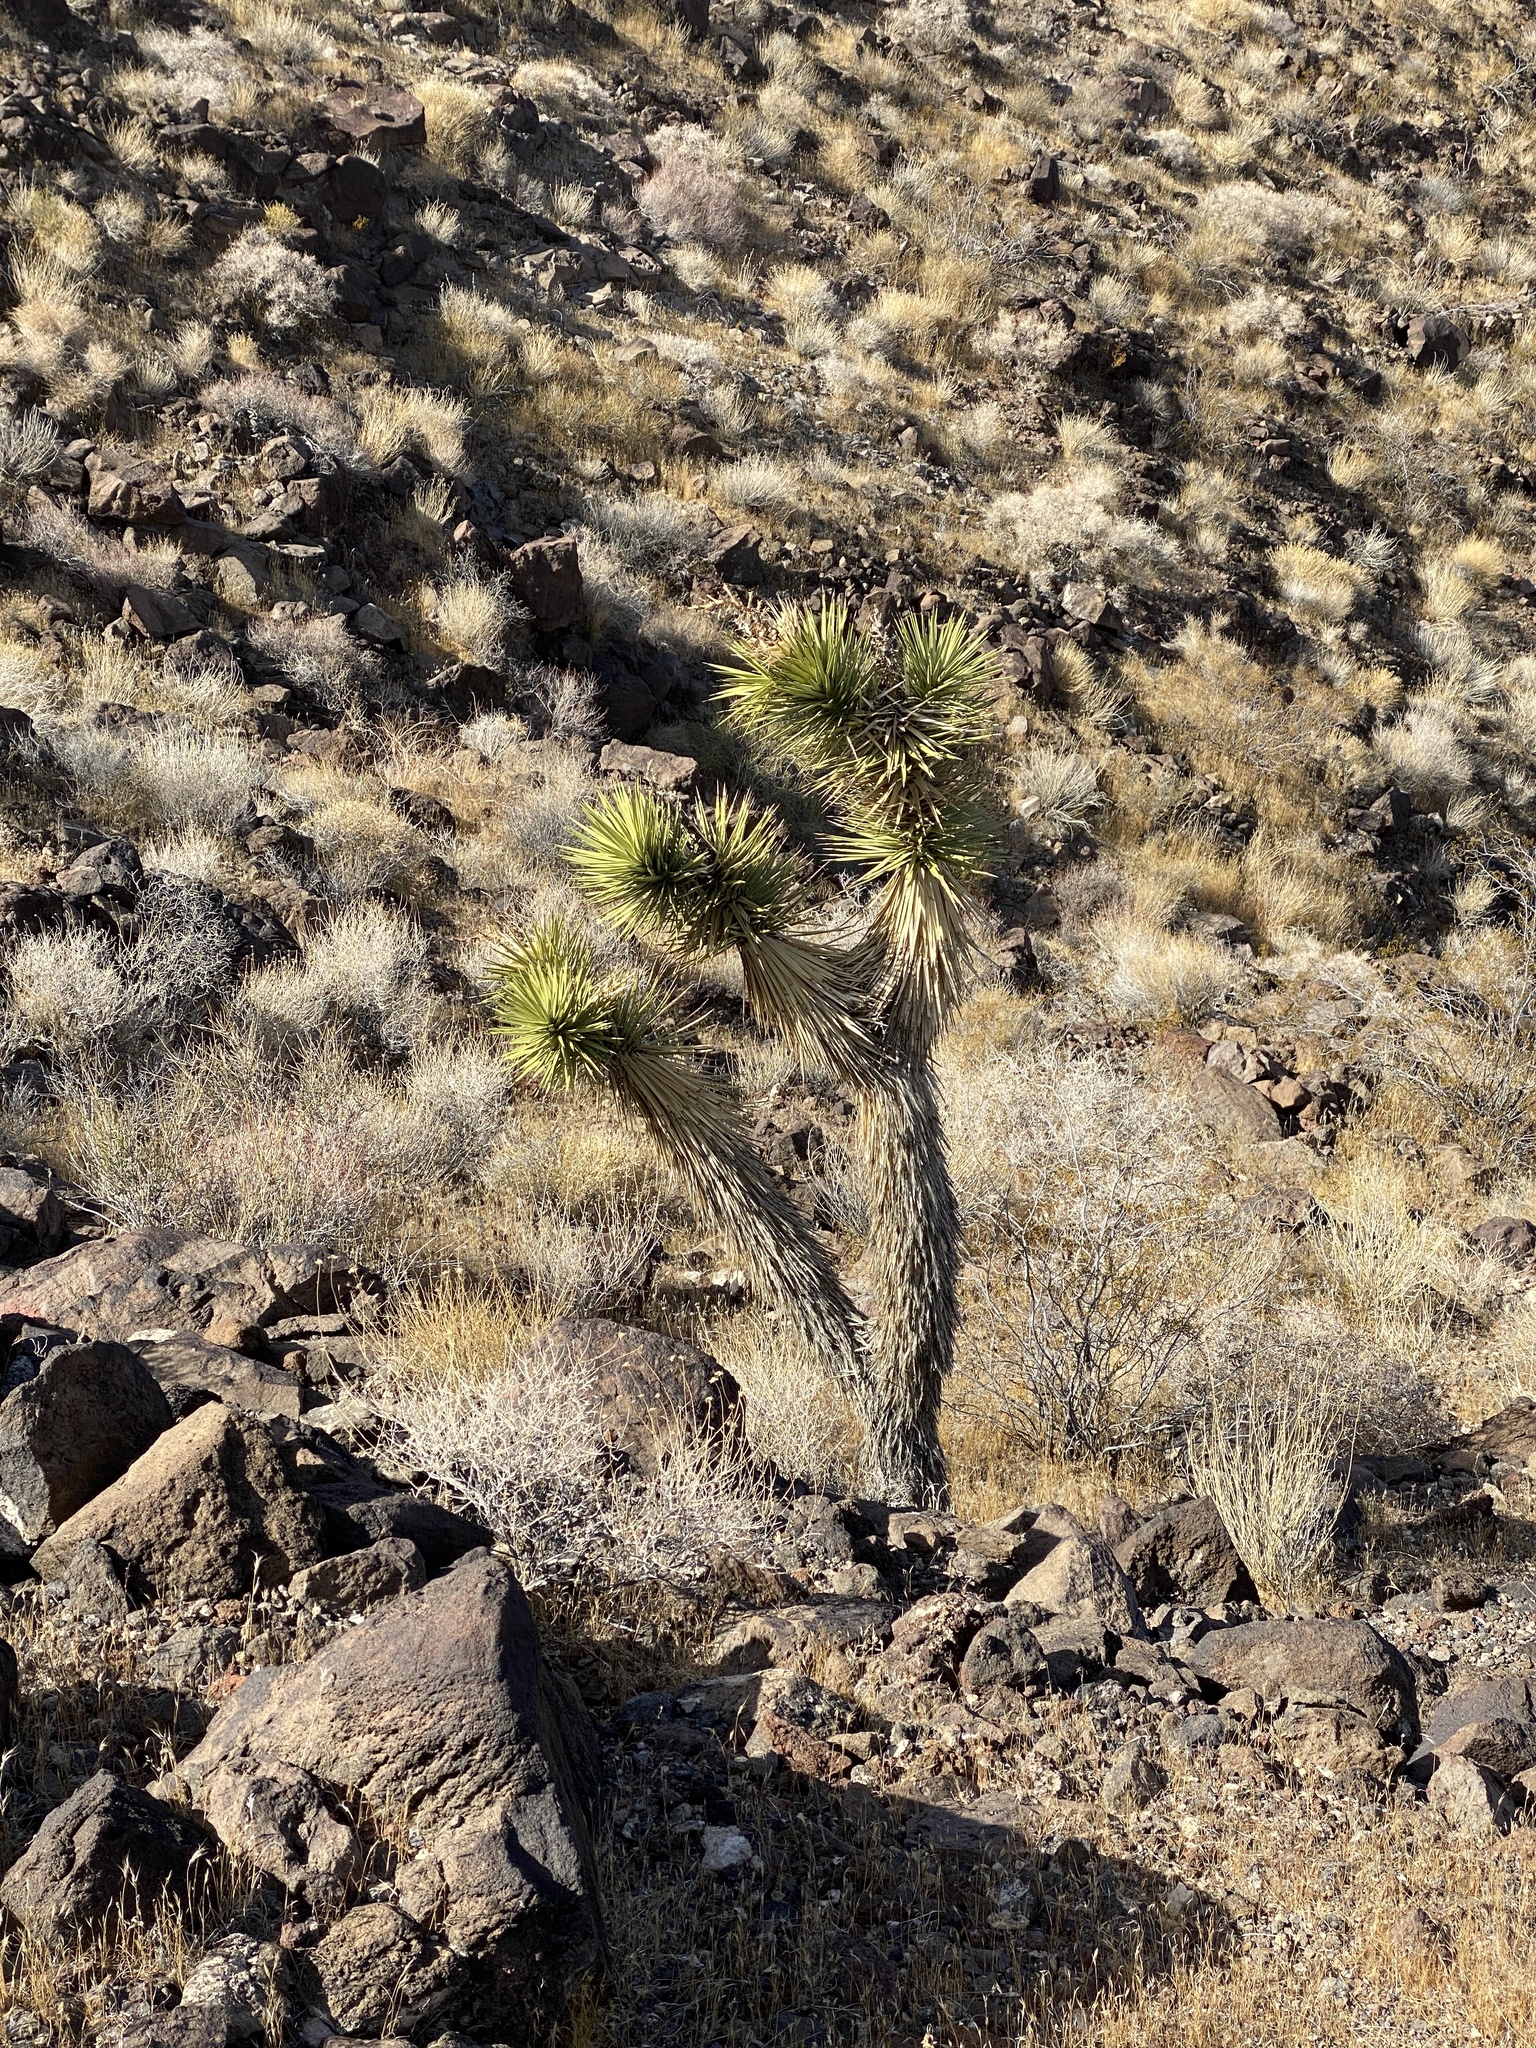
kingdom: Plantae
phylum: Tracheophyta
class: Liliopsida
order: Asparagales
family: Asparagaceae
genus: Yucca
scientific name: Yucca brevifolia
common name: Joshua tree
